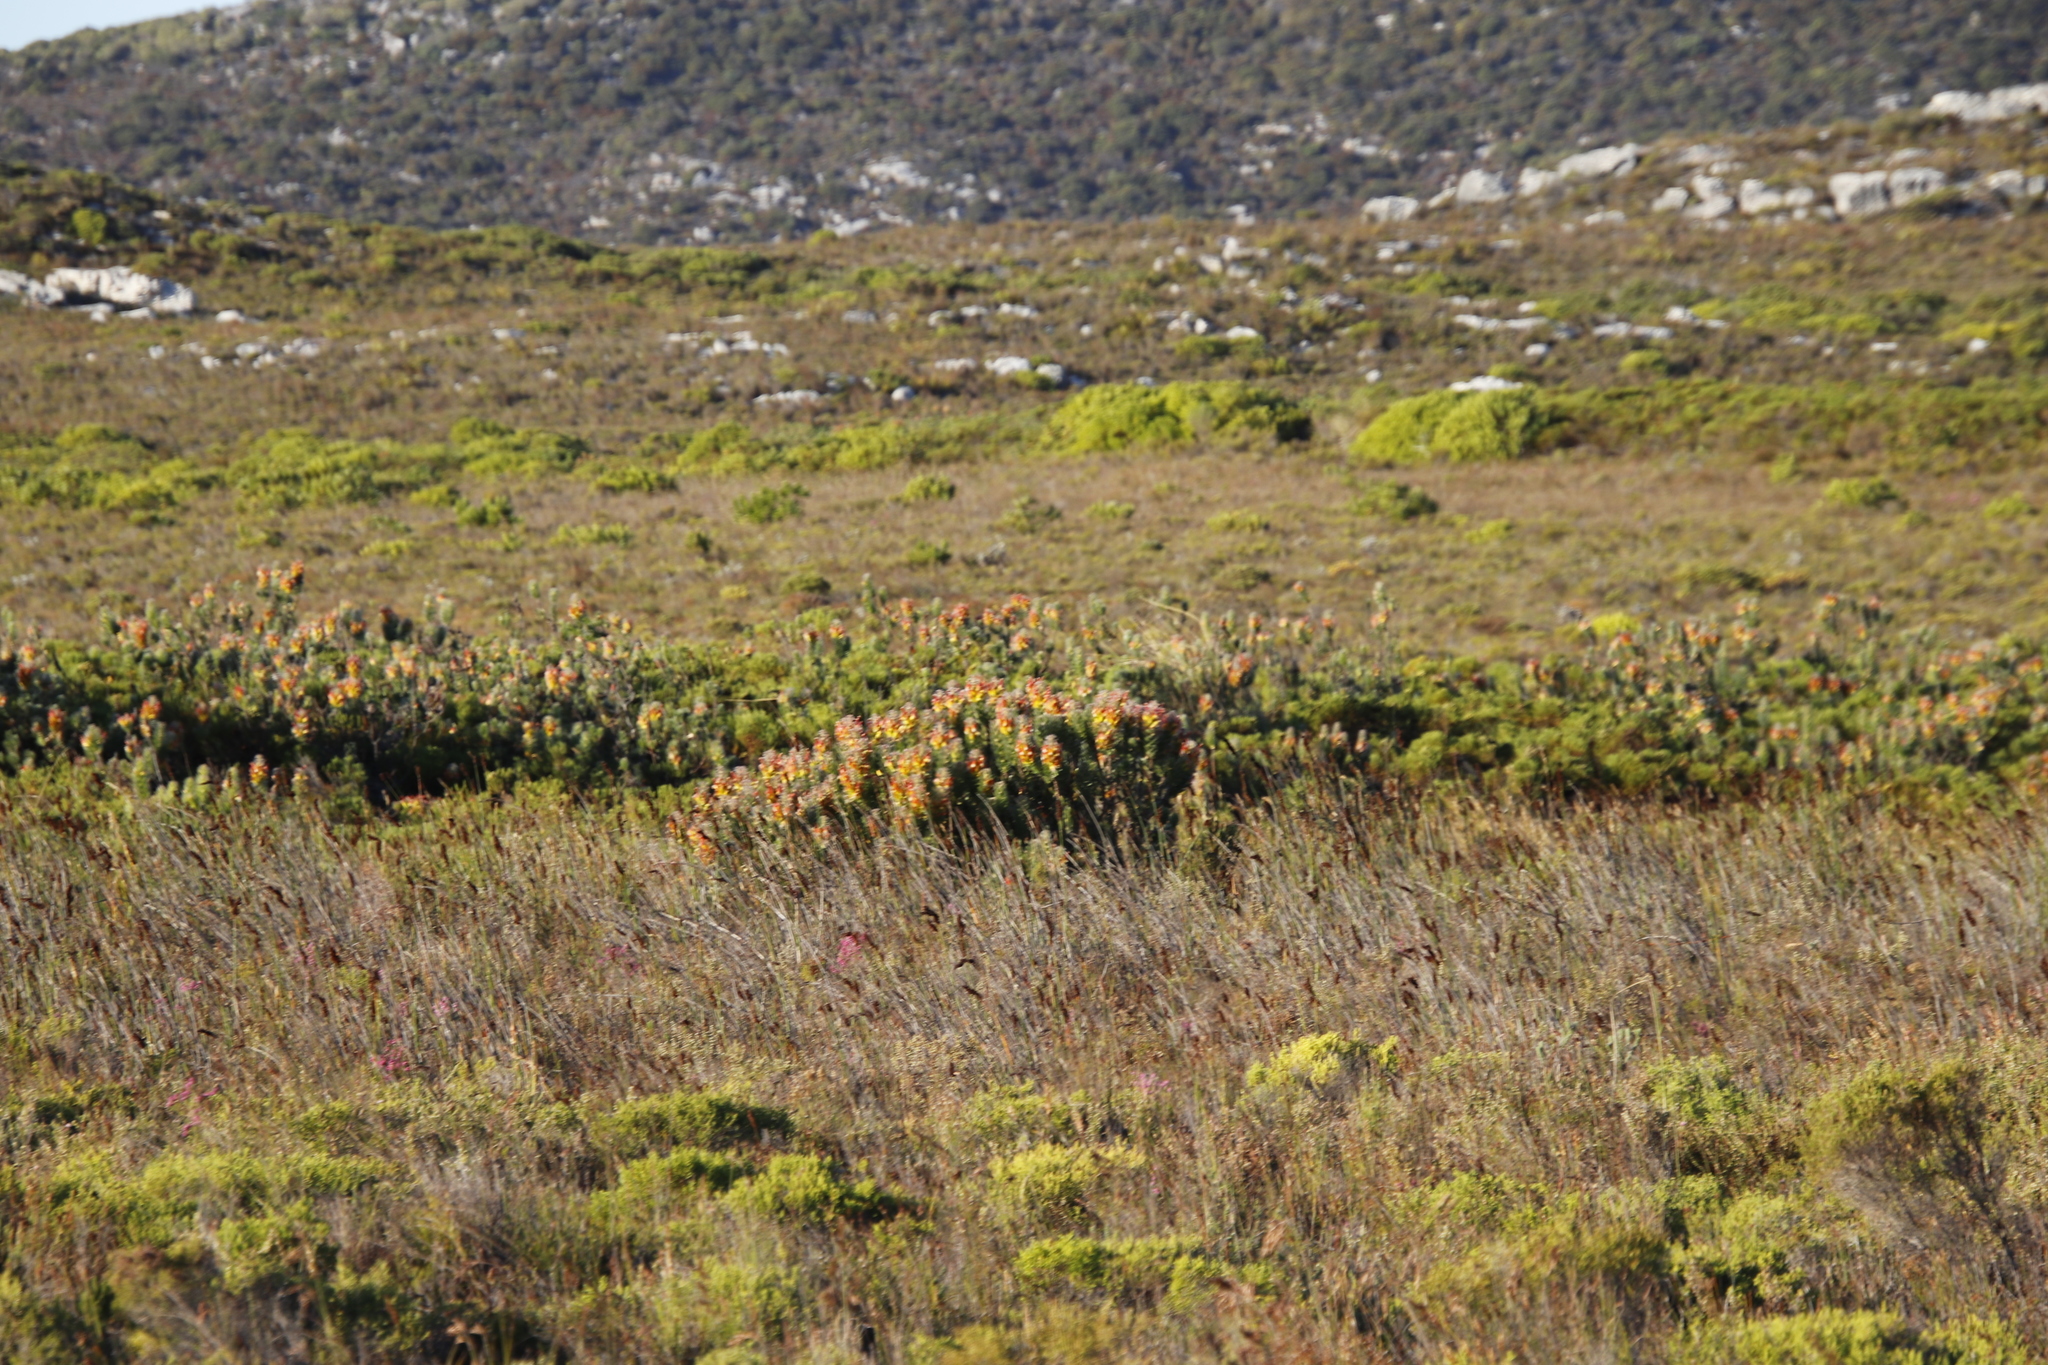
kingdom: Plantae
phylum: Tracheophyta
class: Magnoliopsida
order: Proteales
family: Proteaceae
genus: Mimetes
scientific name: Mimetes hirtus
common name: Marsh pagoda
